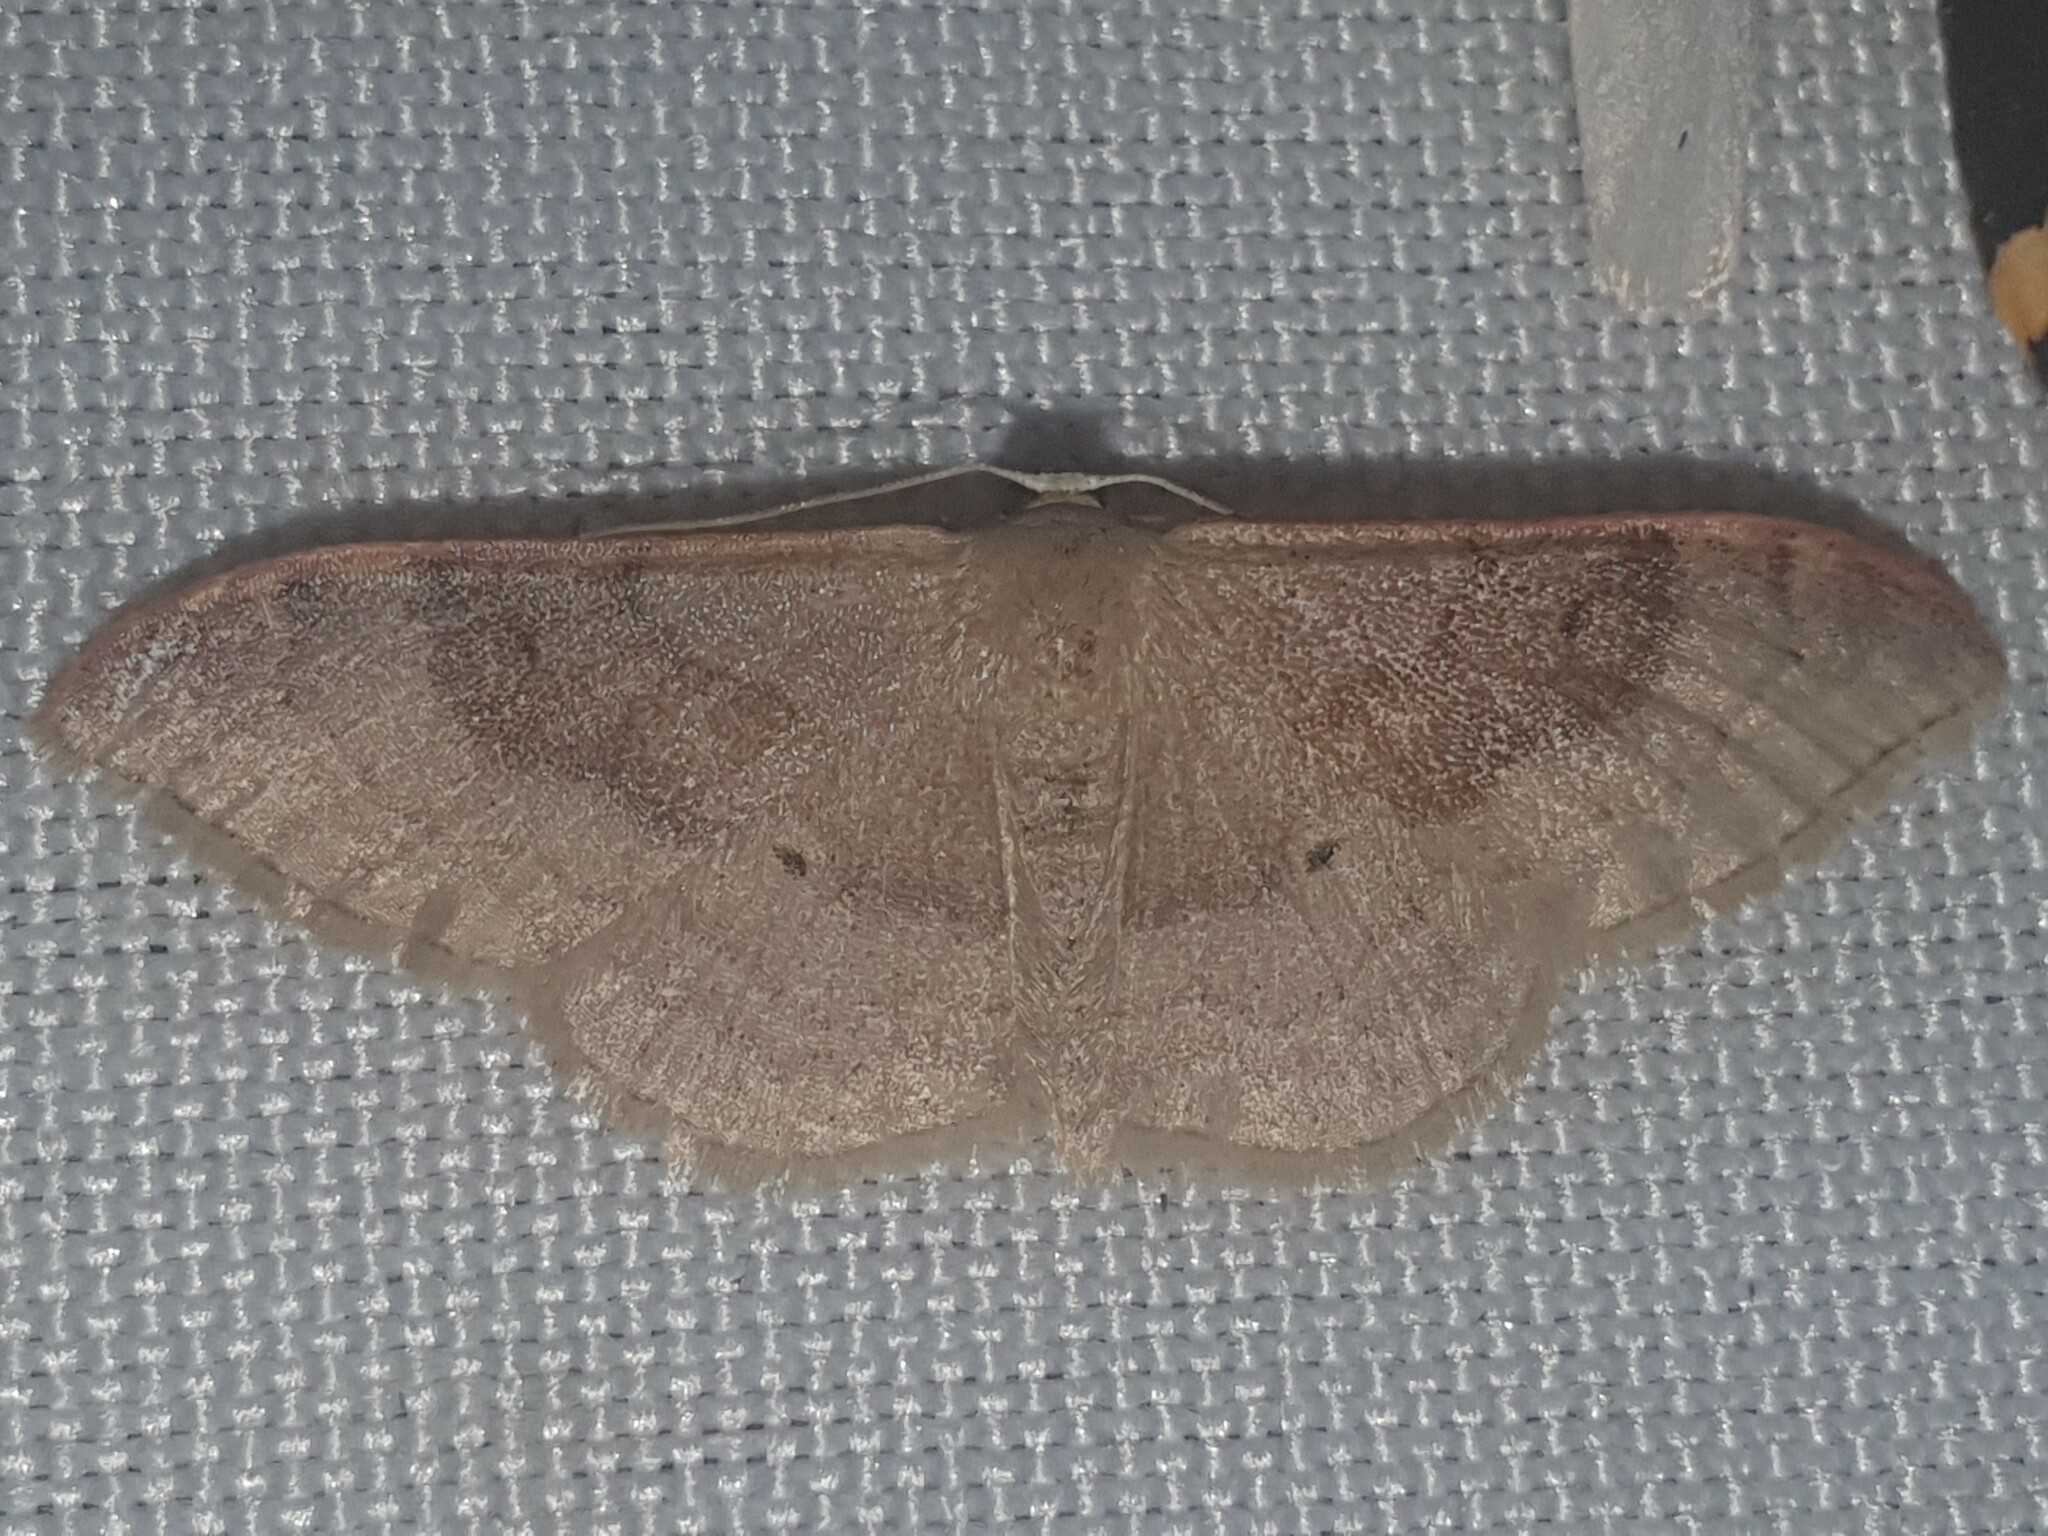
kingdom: Animalia
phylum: Arthropoda
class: Insecta
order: Lepidoptera
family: Geometridae
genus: Idaea
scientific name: Idaea degeneraria
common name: Portland ribbon wave
